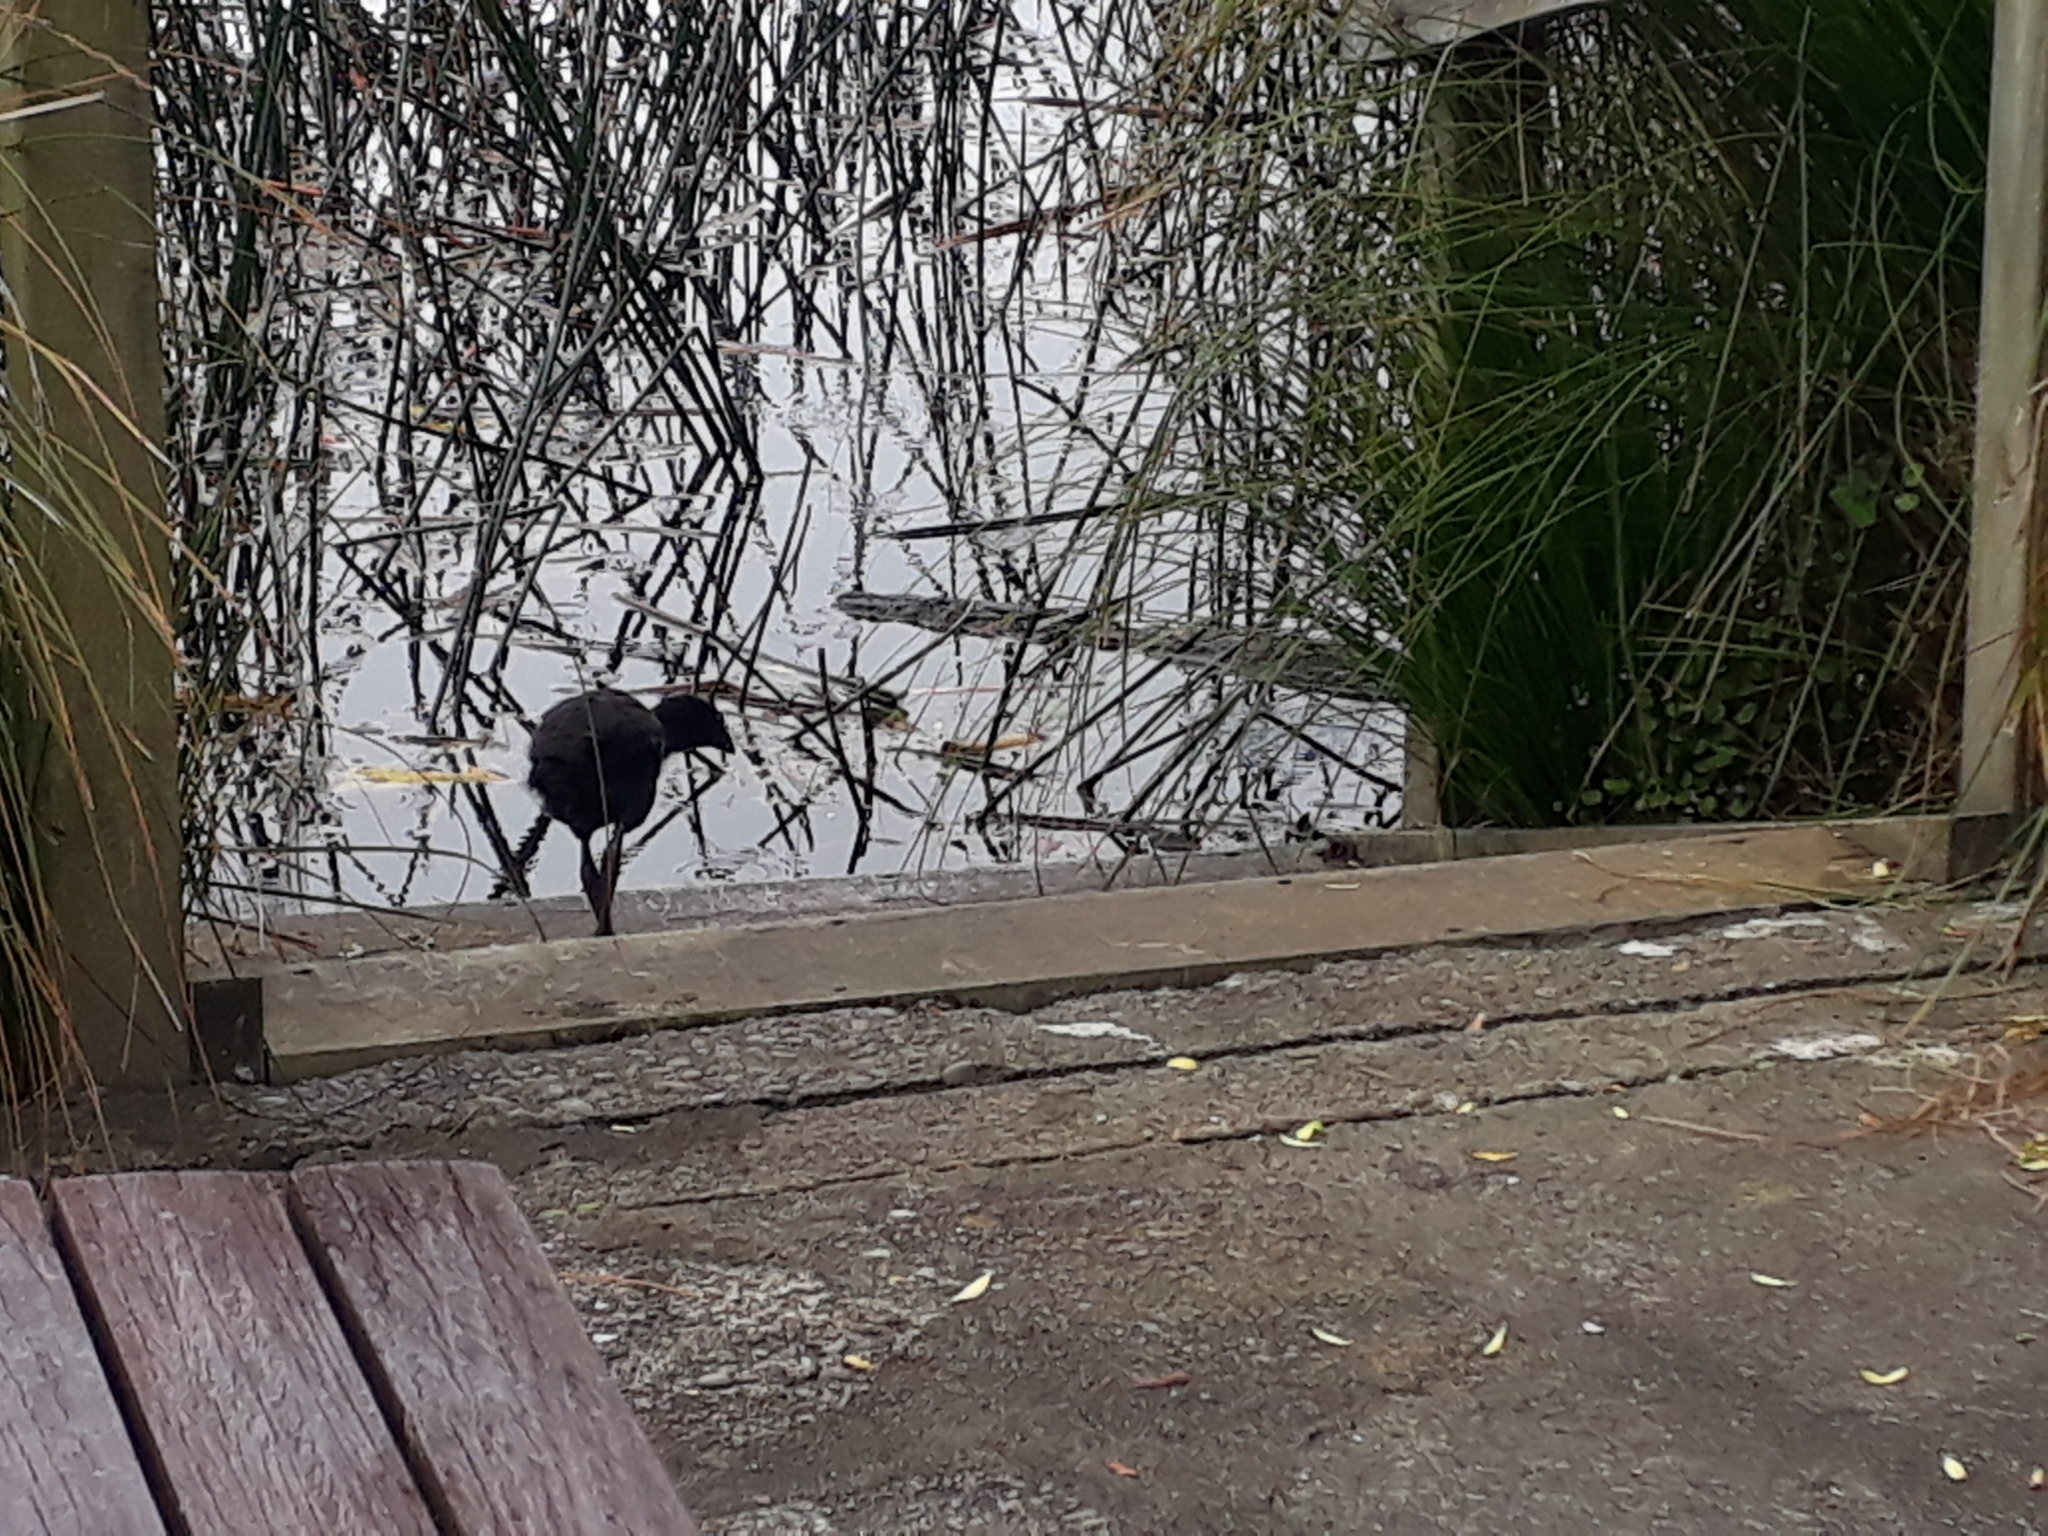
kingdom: Animalia
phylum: Chordata
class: Aves
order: Gruiformes
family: Rallidae
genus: Porphyrio
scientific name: Porphyrio melanotus
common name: Australasian swamphen
